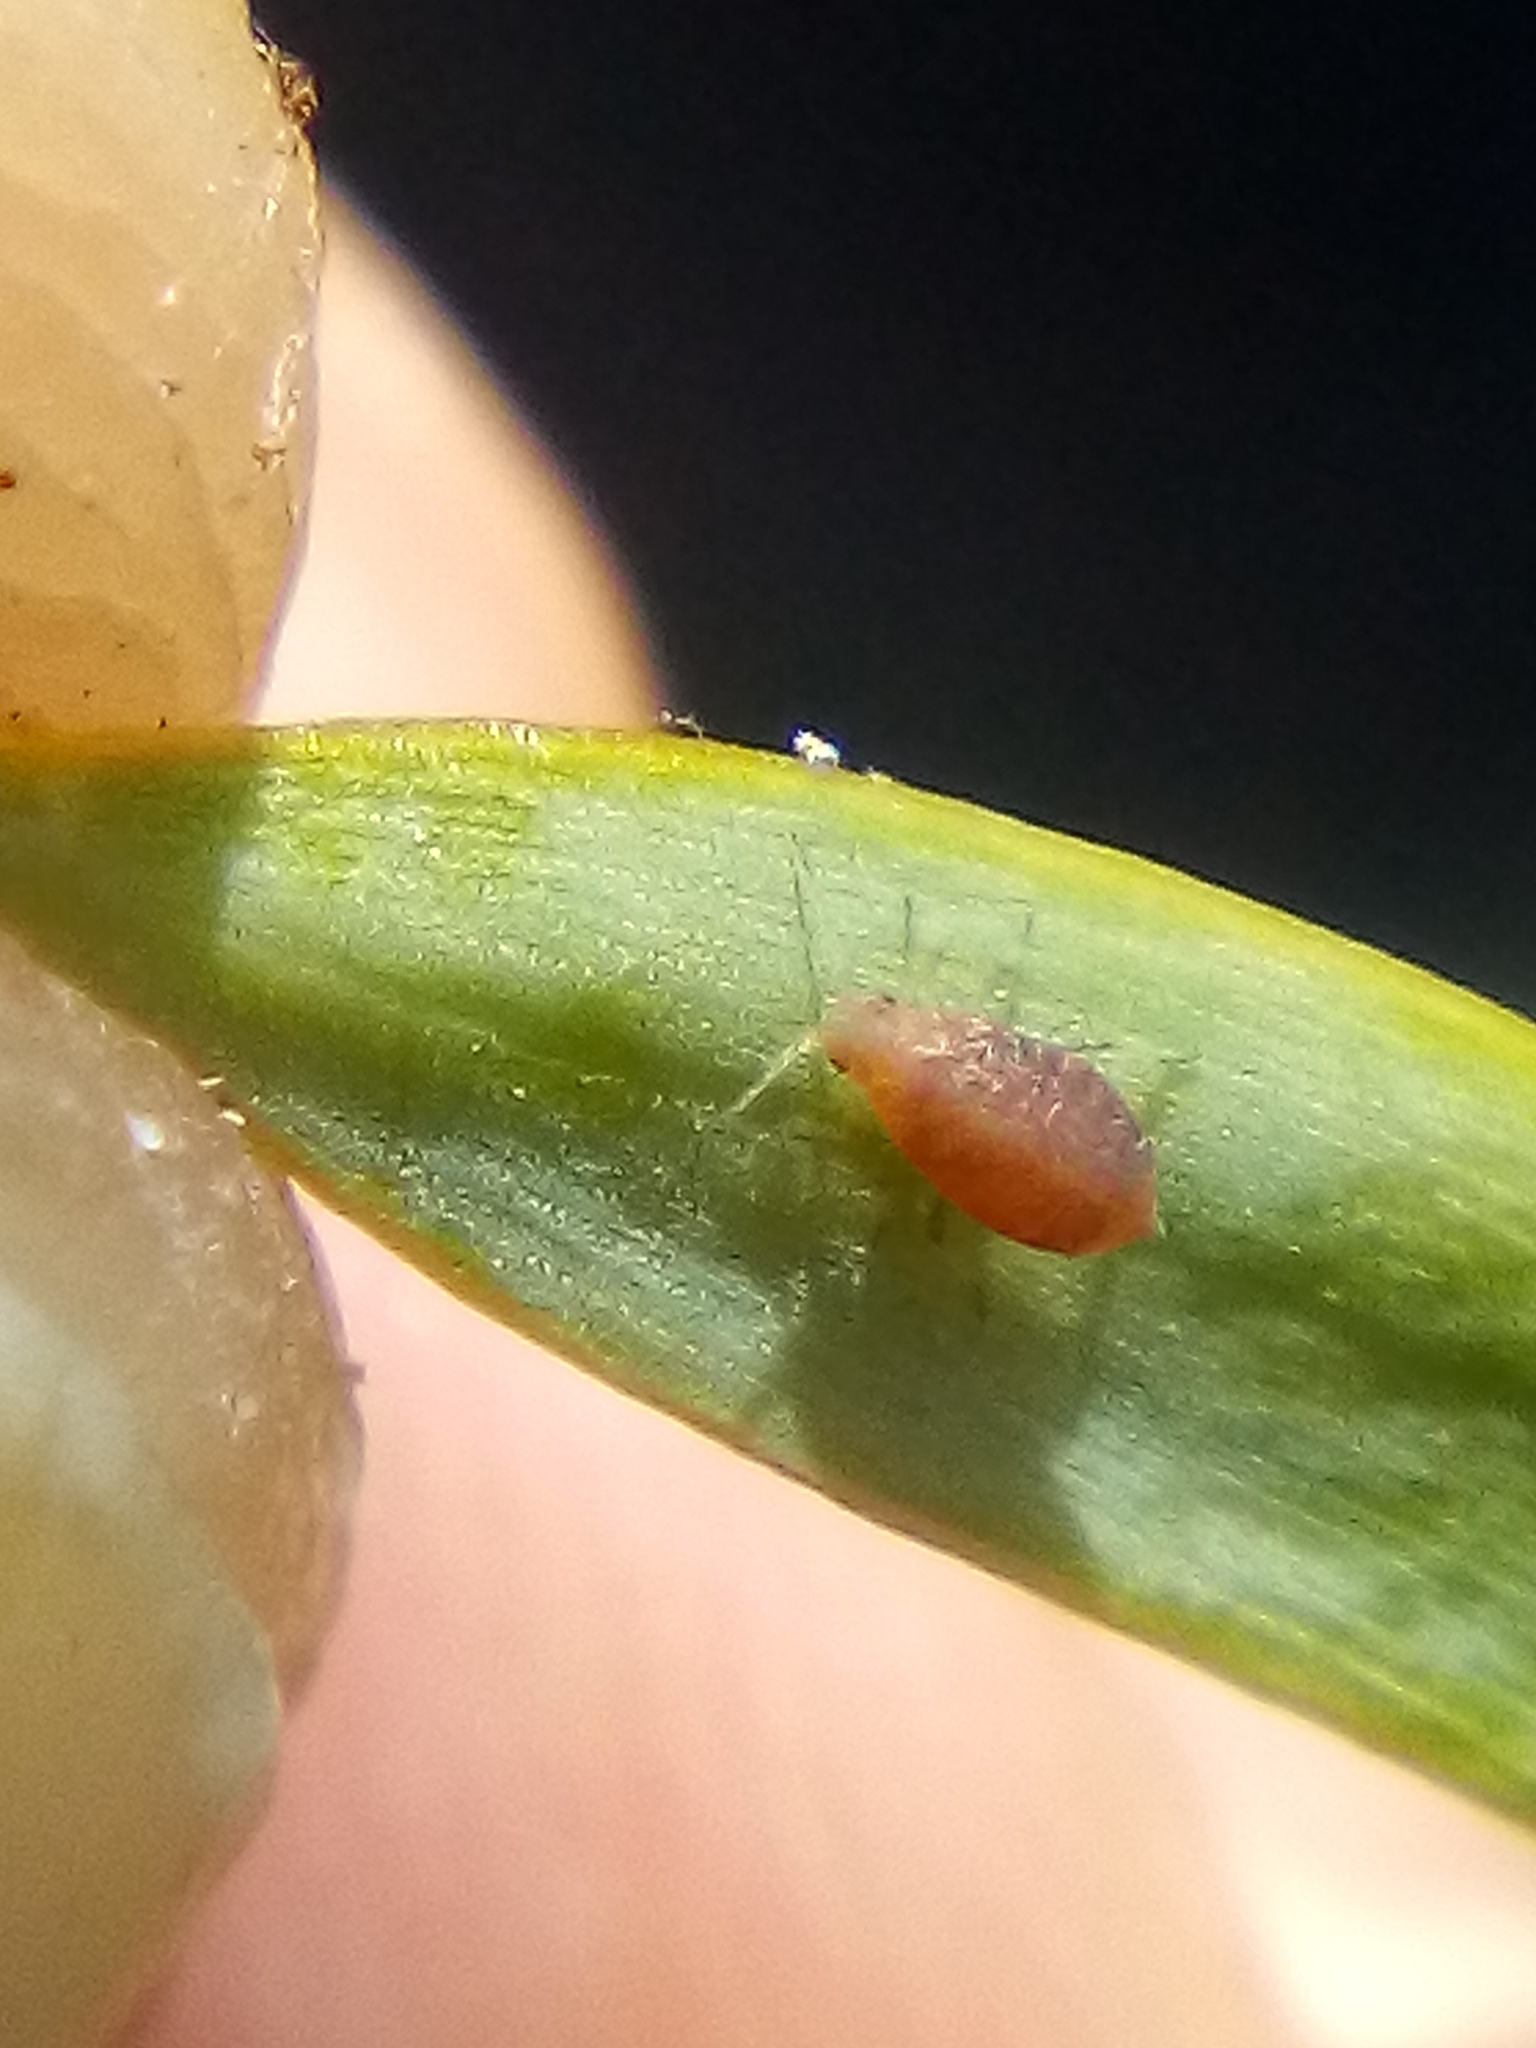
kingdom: Animalia
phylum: Arthropoda
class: Insecta
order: Hemiptera
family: Aphididae
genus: Neophyllaphis
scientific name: Neophyllaphis totarae
